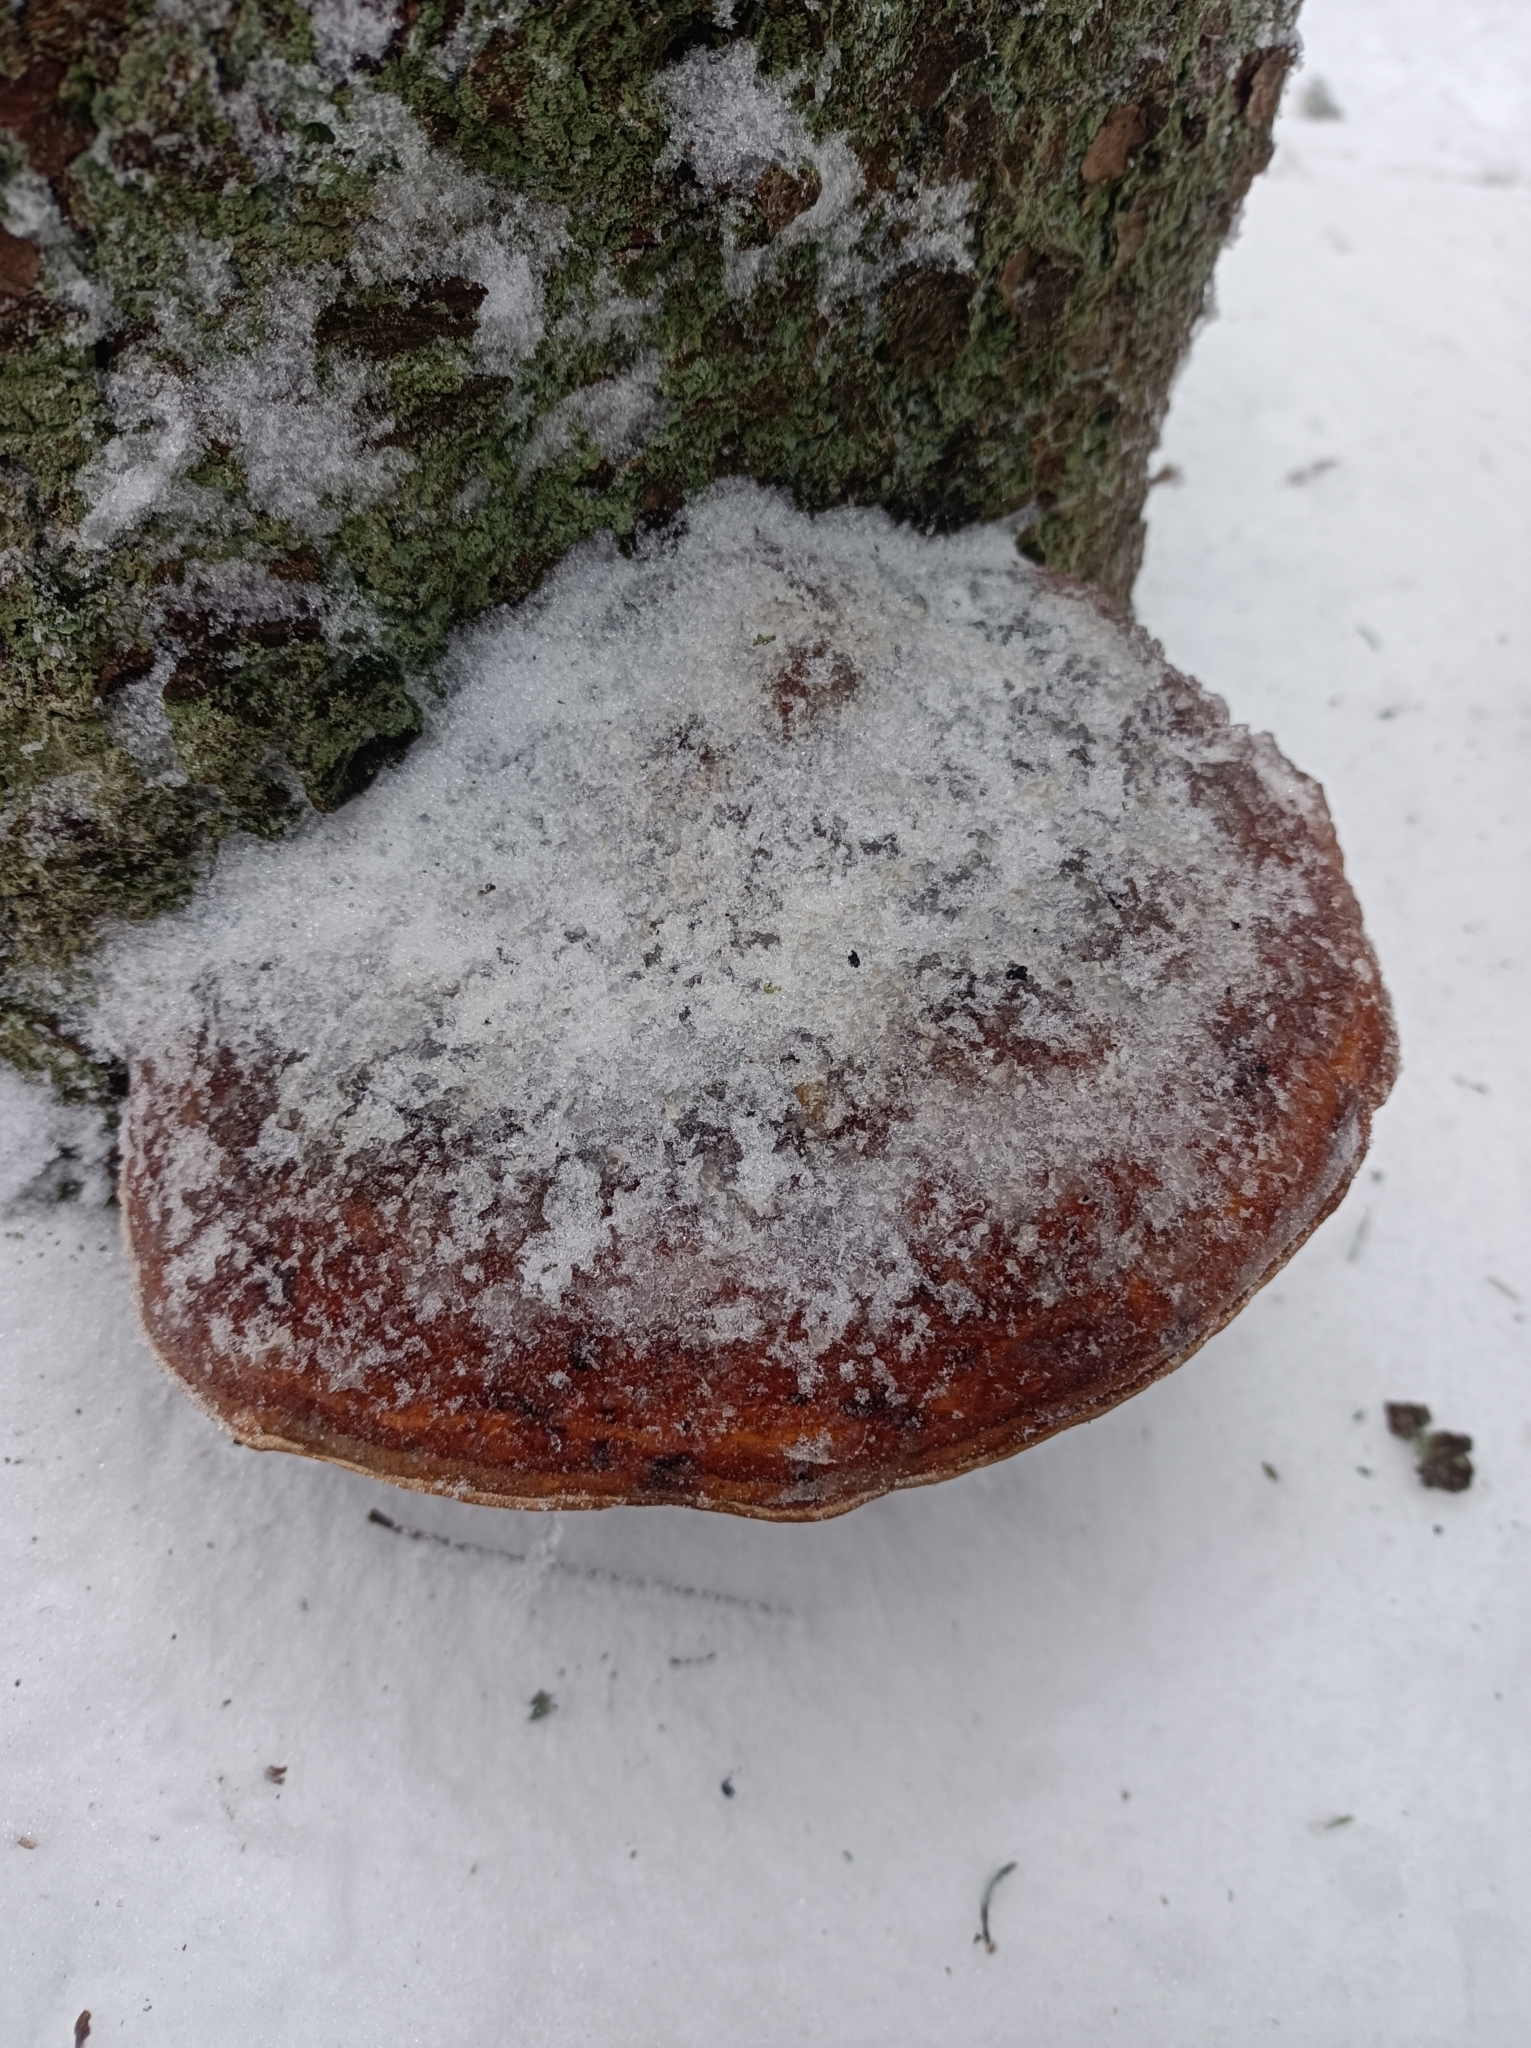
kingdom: Fungi
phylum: Basidiomycota
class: Agaricomycetes
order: Polyporales
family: Fomitopsidaceae
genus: Fomitopsis
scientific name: Fomitopsis pinicola
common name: Red-belted bracket
